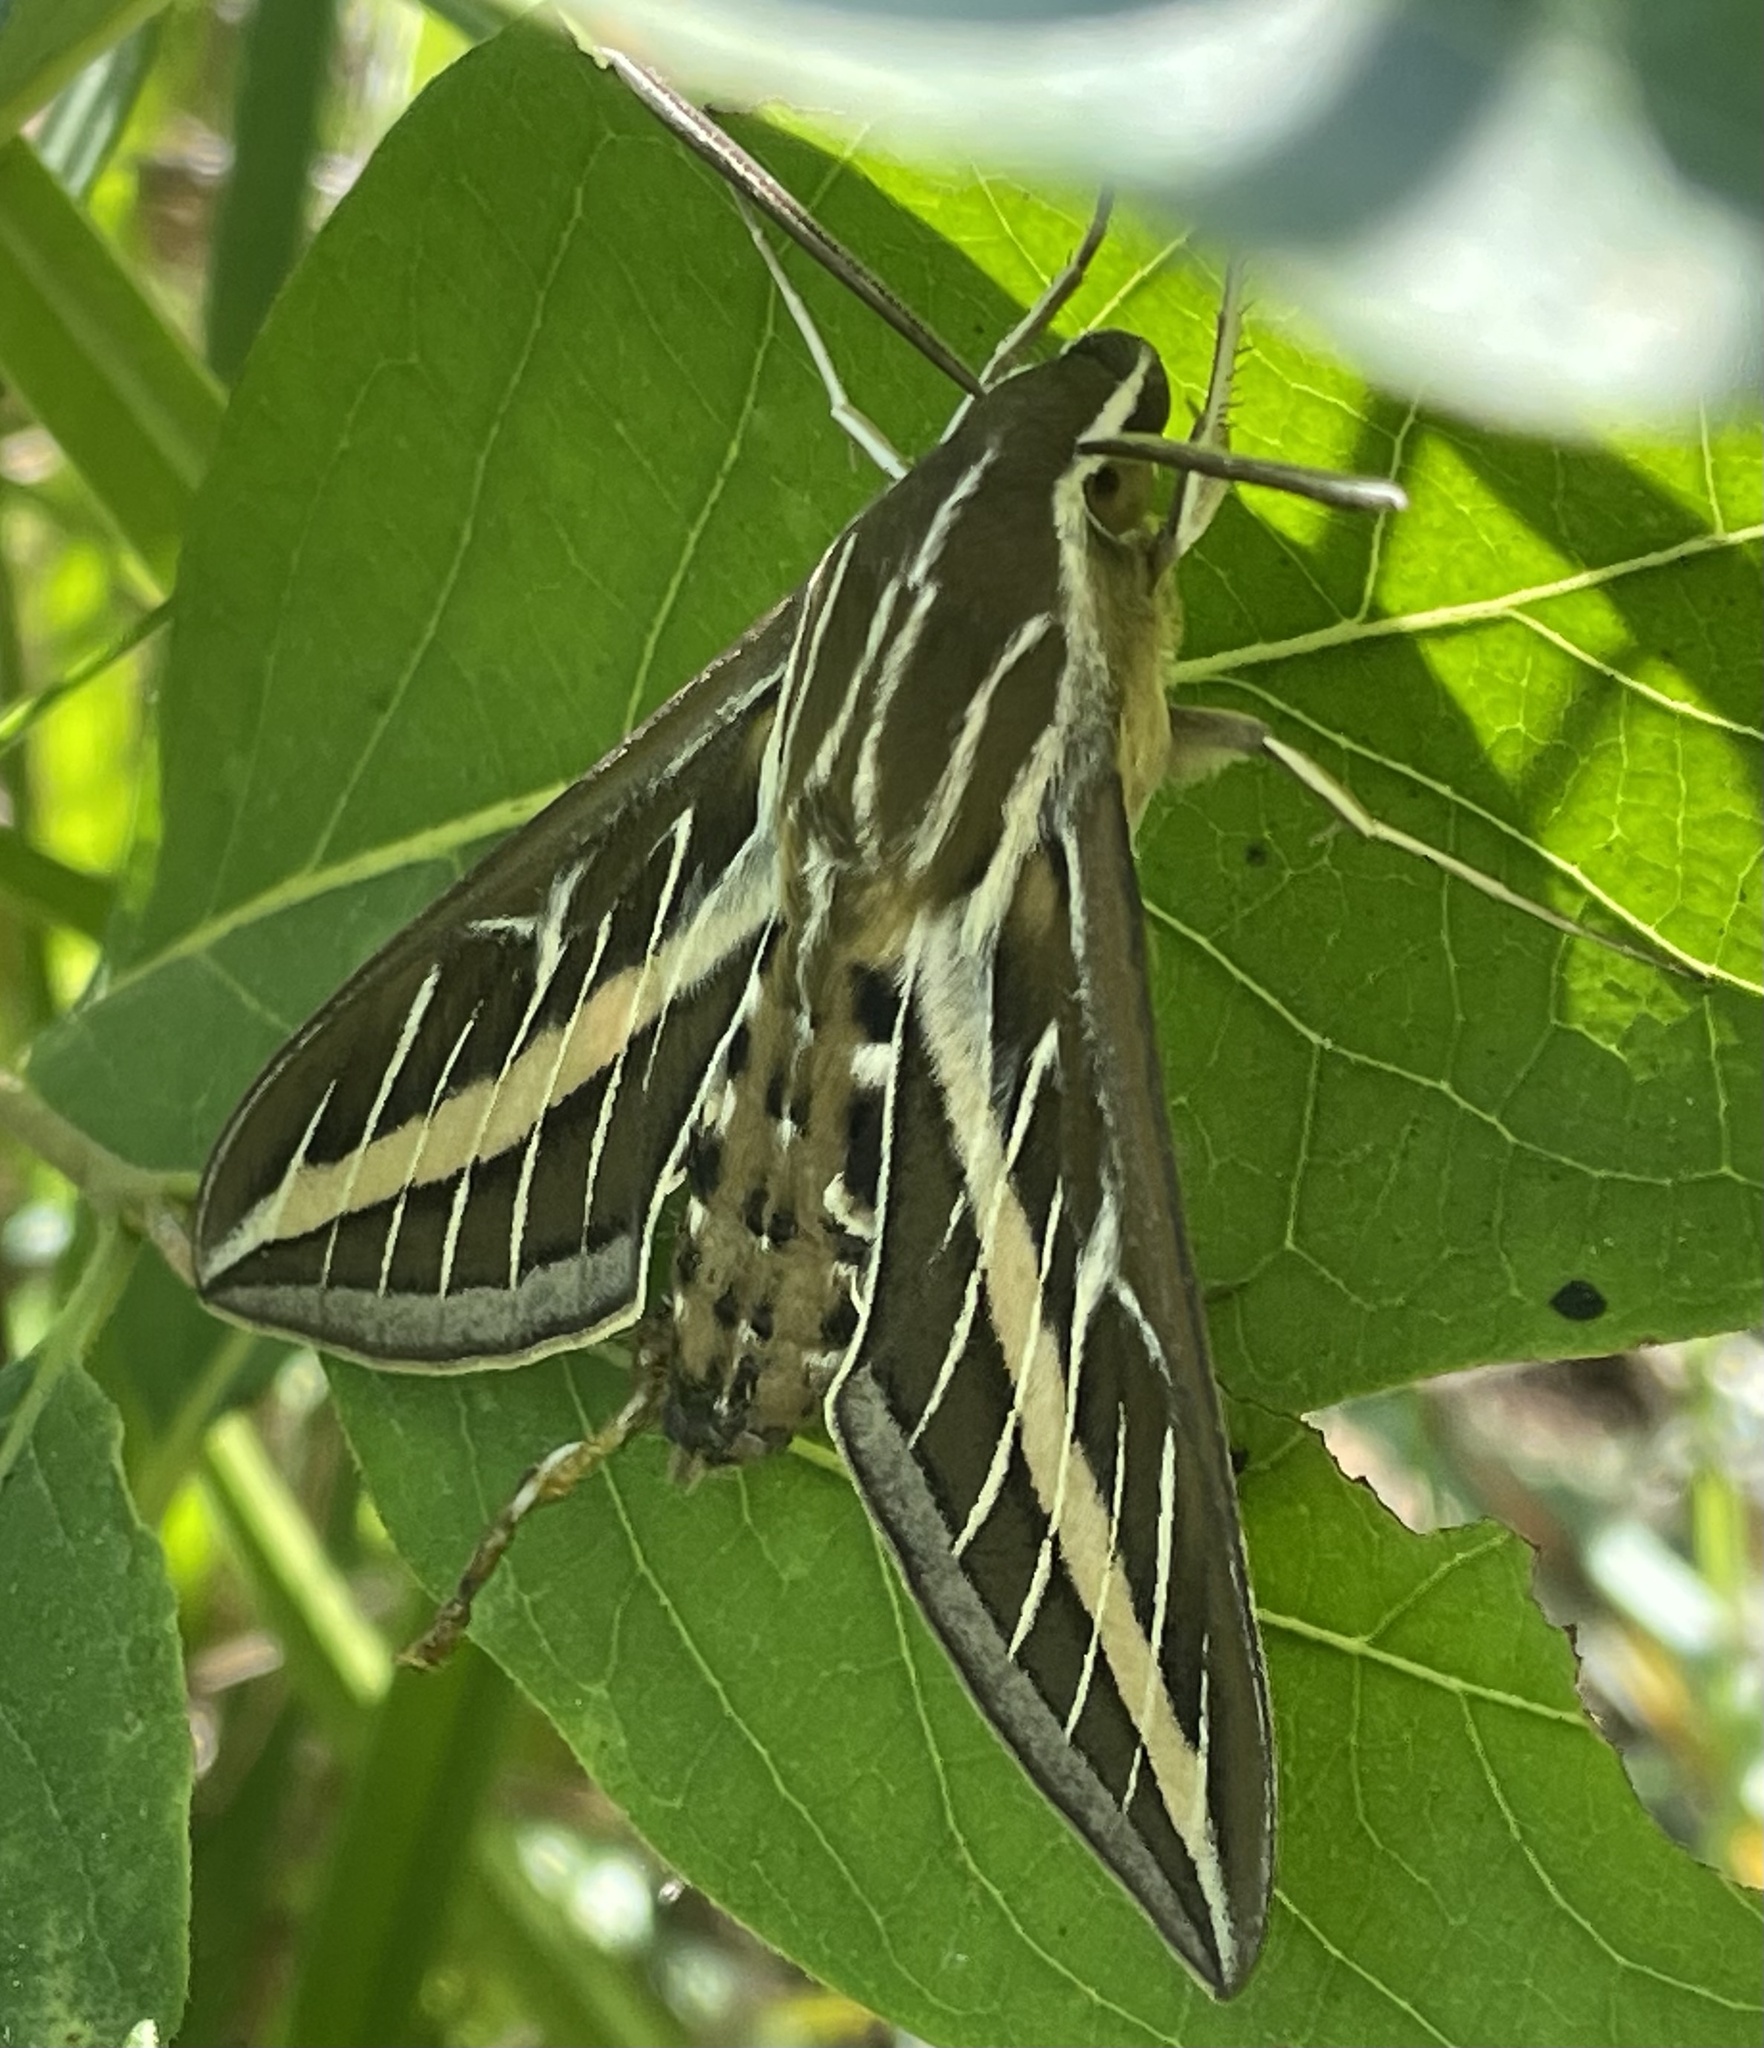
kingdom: Animalia
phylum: Arthropoda
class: Insecta
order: Lepidoptera
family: Sphingidae
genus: Hyles
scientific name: Hyles lineata
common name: White-lined sphinx
